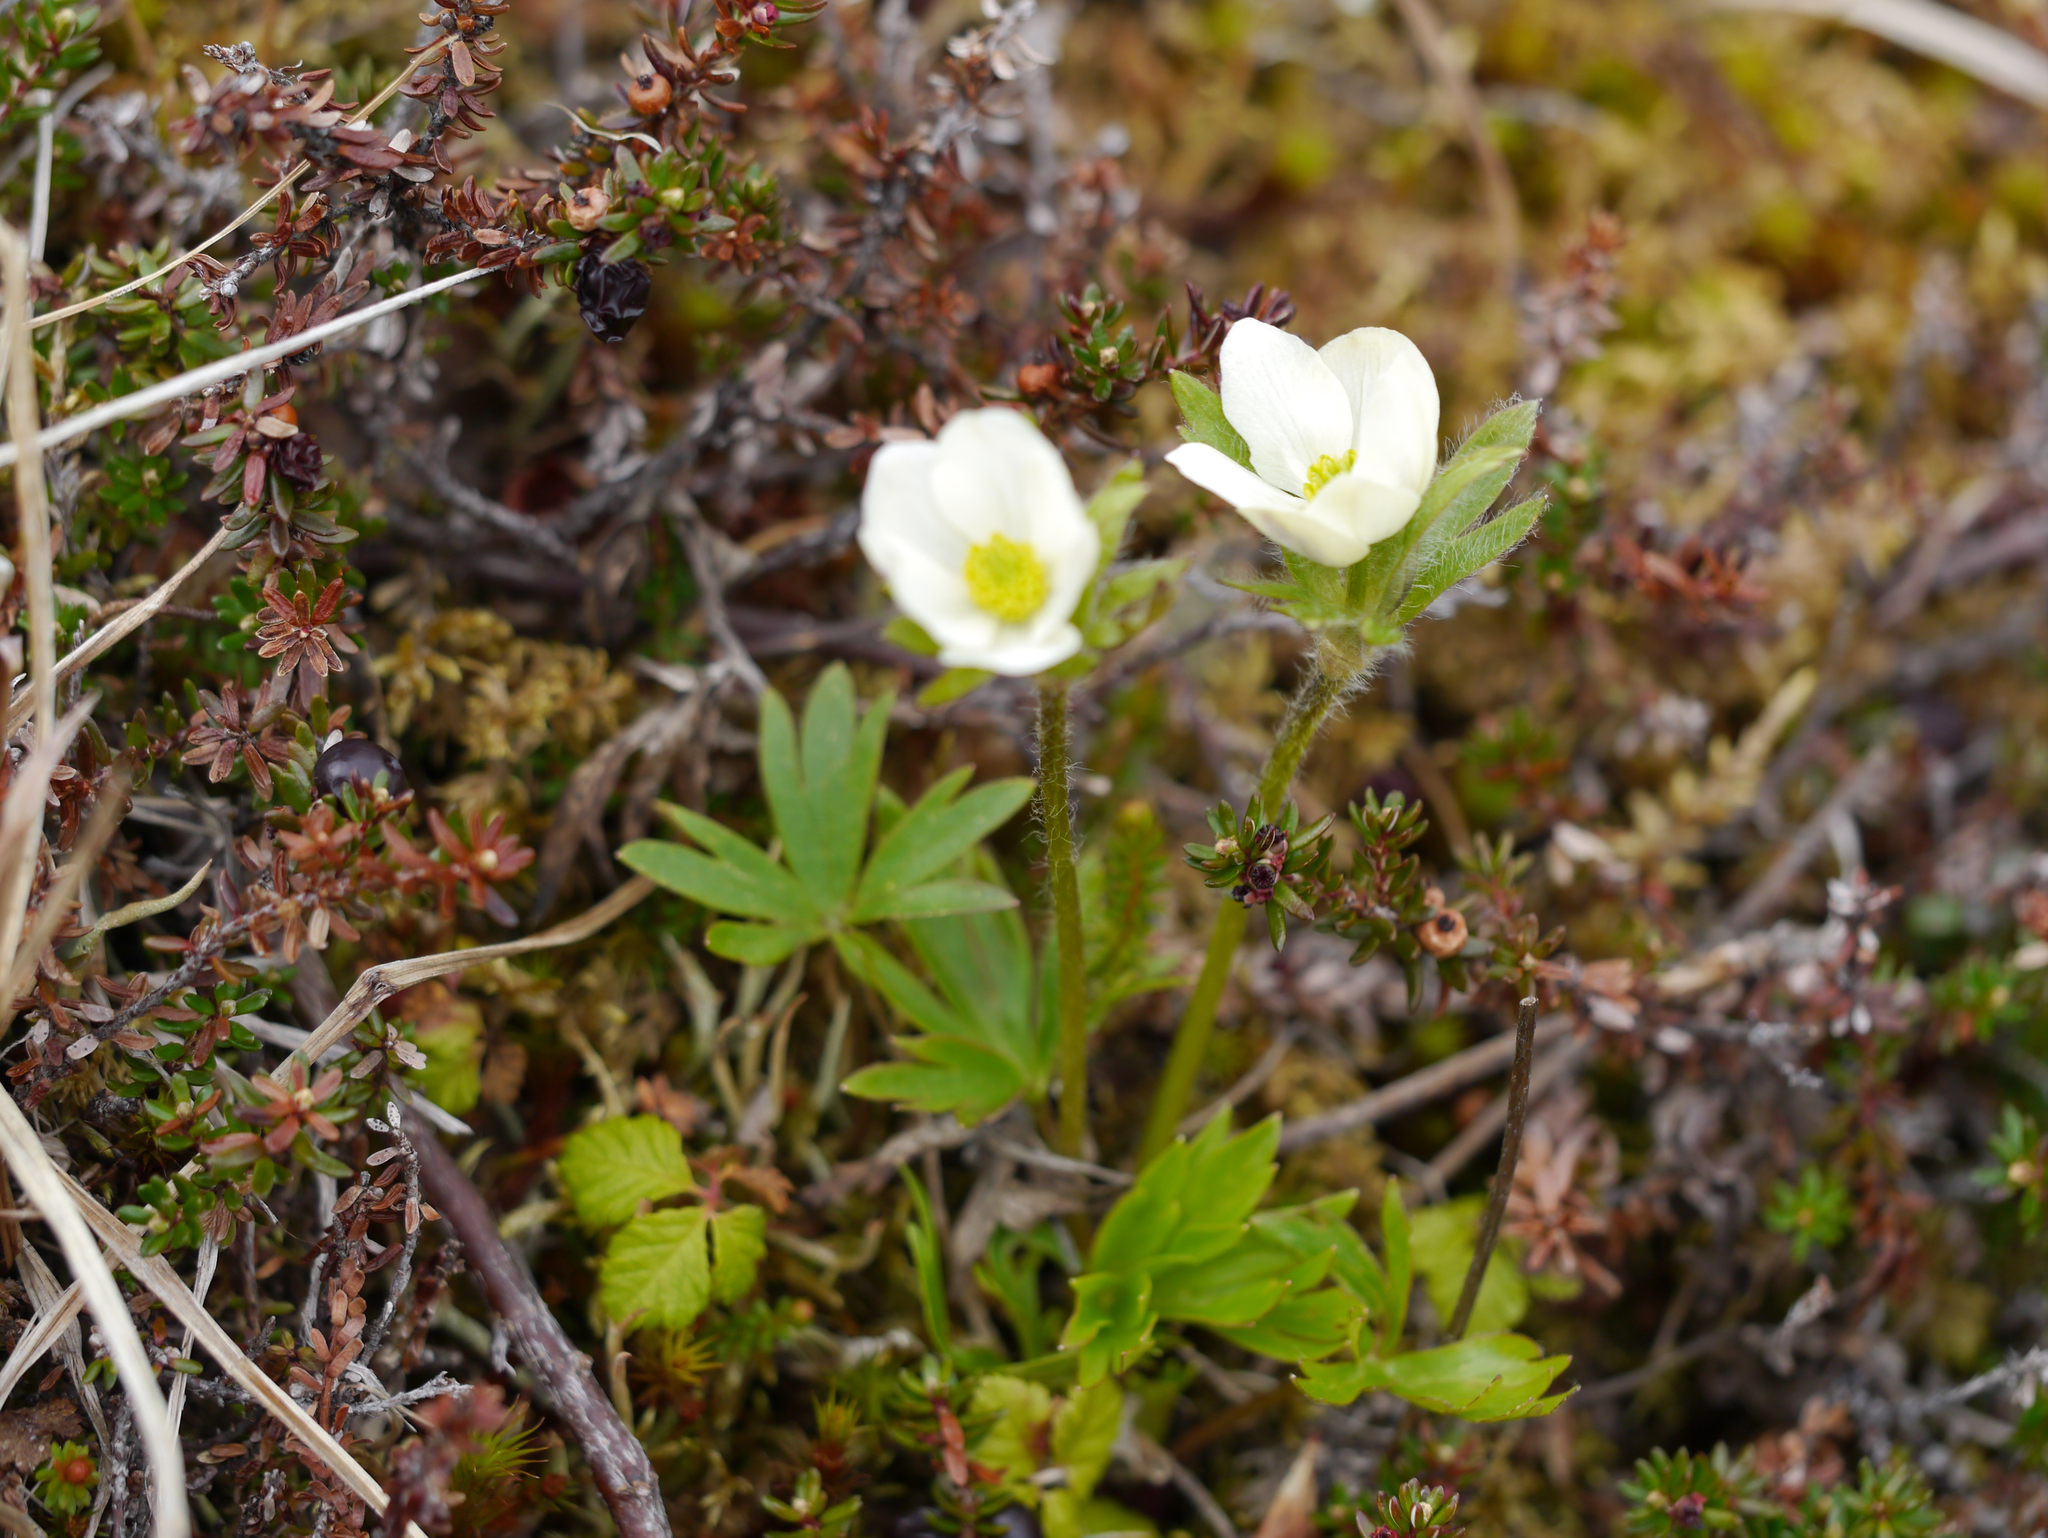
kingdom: Plantae
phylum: Tracheophyta
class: Magnoliopsida
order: Ranunculales
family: Ranunculaceae
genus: Anemone
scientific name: Anemone multifida
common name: Bird's-foot anemone
